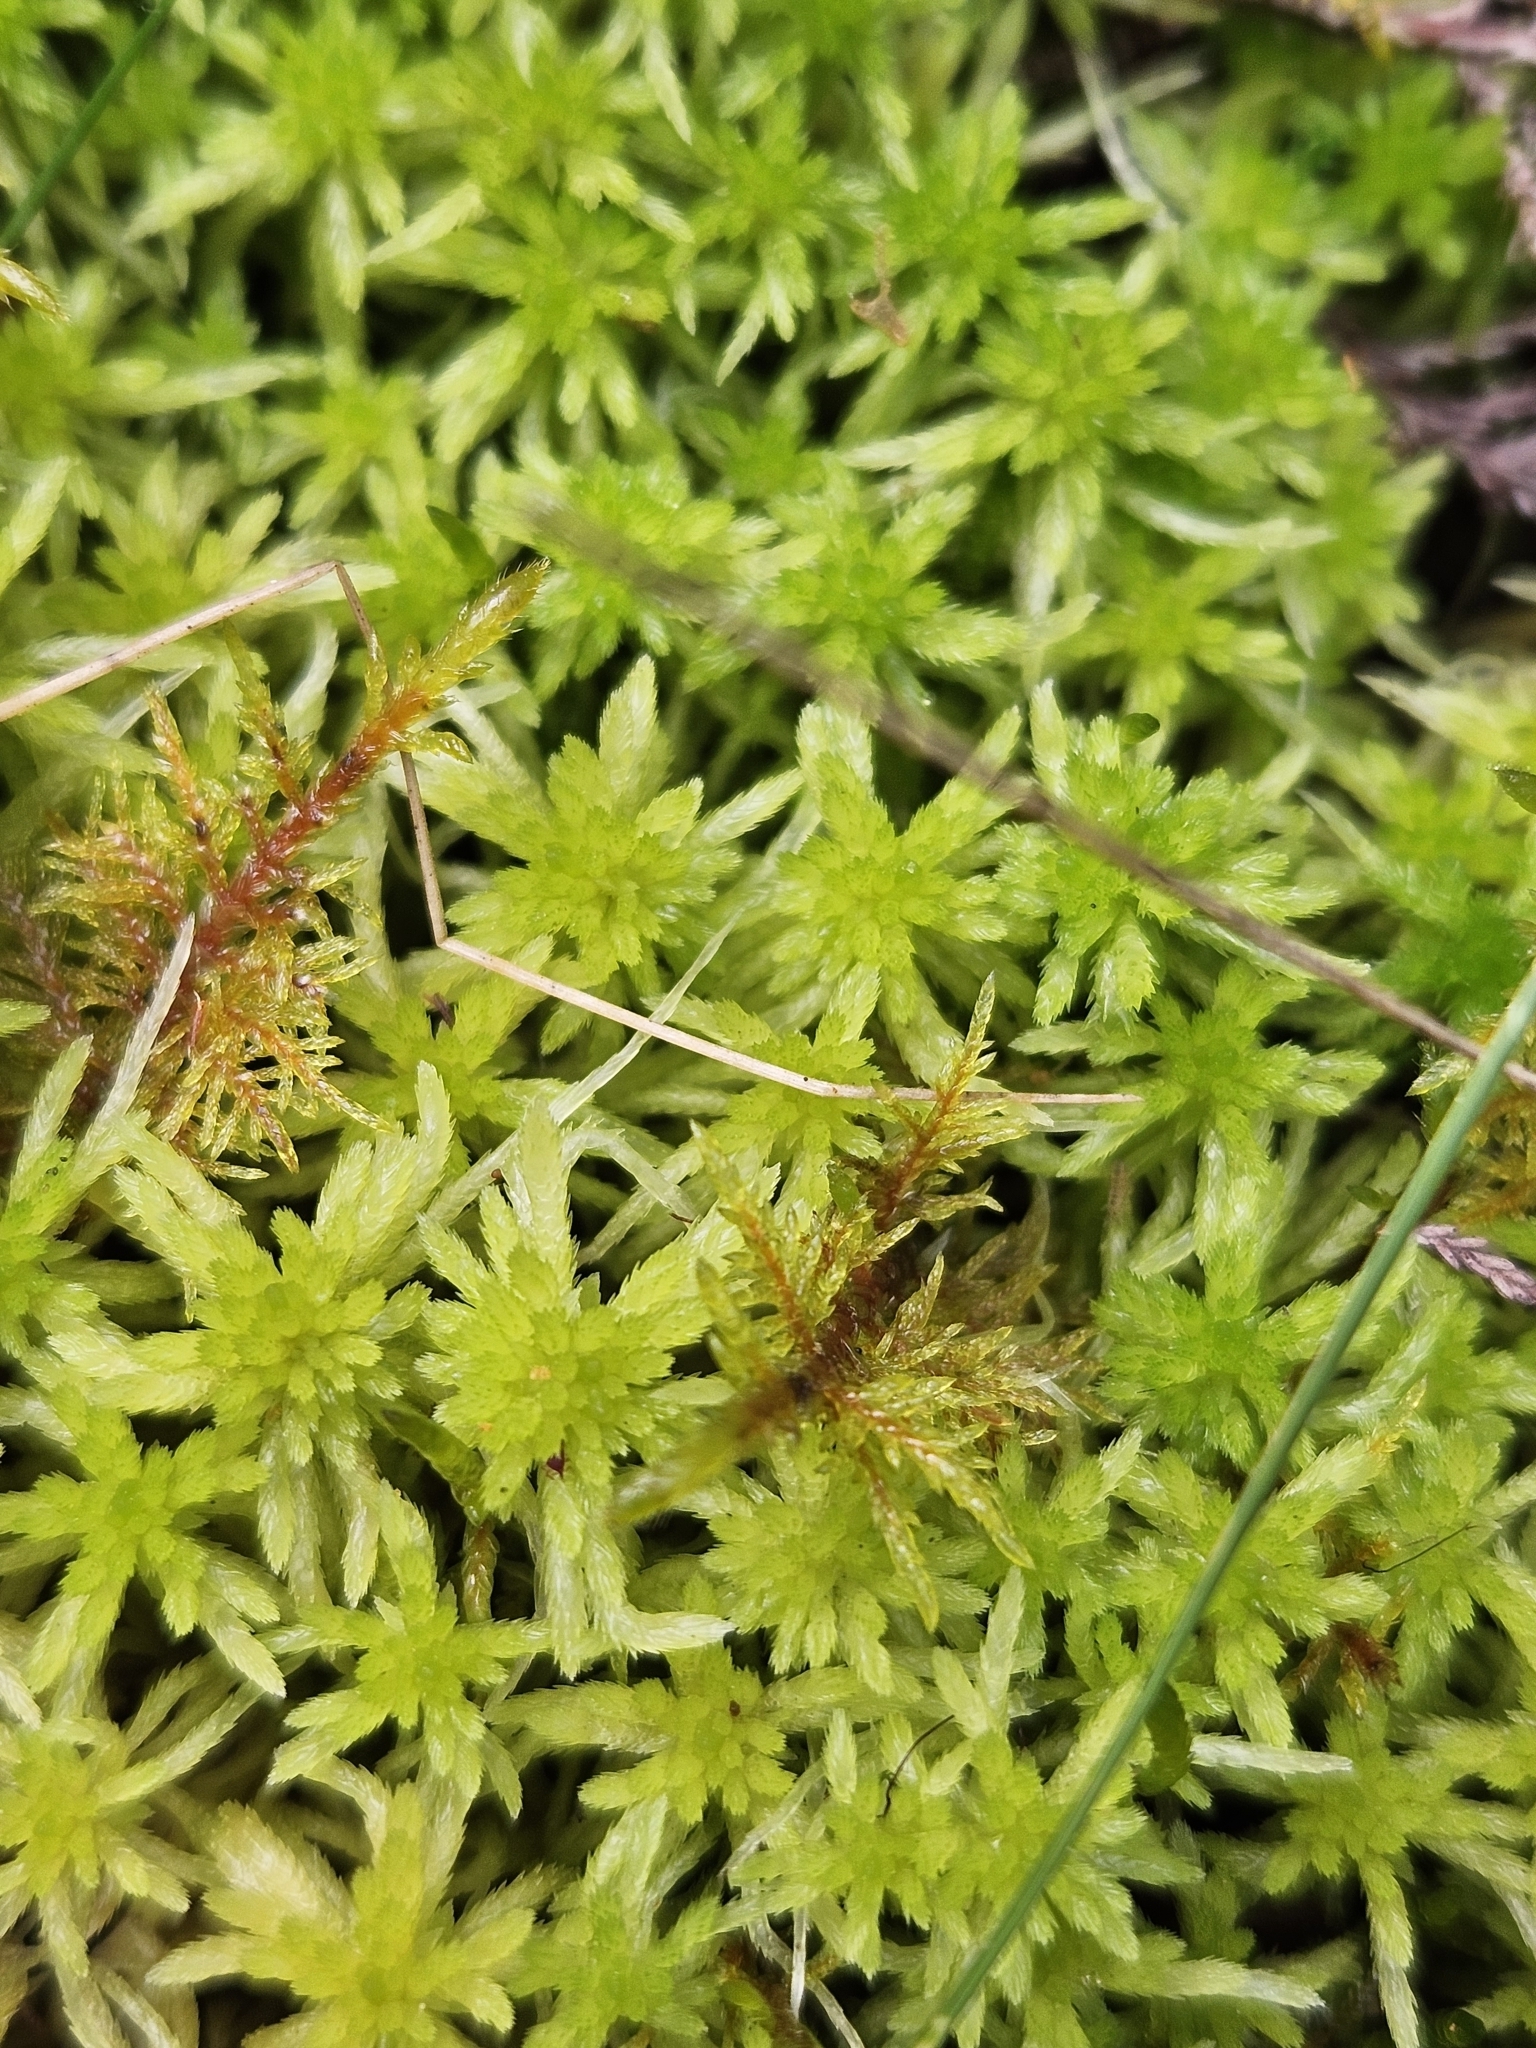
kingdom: Plantae
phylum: Bryophyta
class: Sphagnopsida
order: Sphagnales
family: Sphagnaceae
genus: Sphagnum
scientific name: Sphagnum girgensohnii
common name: Girgensohn's peat moss
